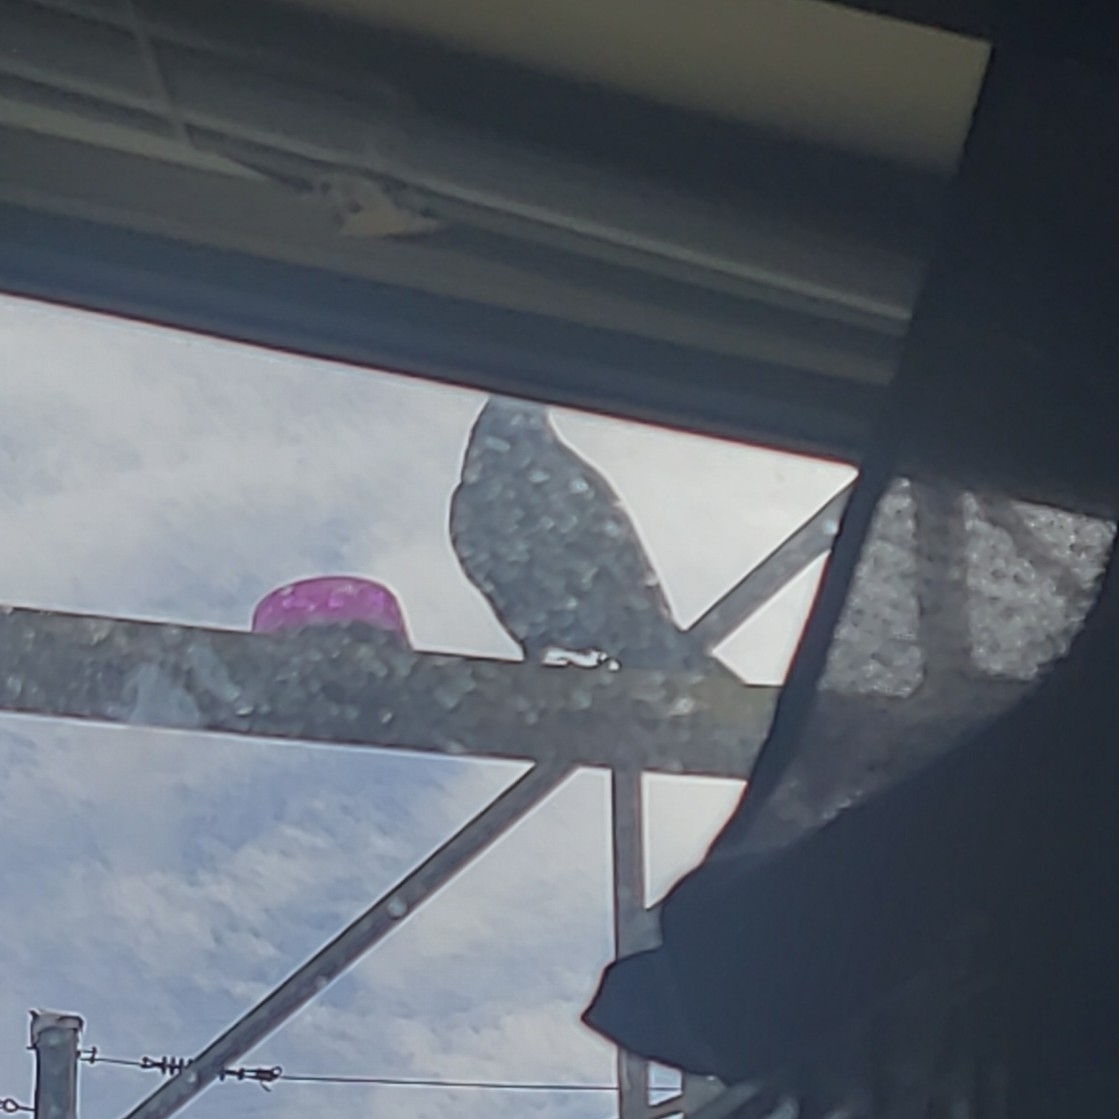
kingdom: Animalia
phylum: Chordata
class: Aves
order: Passeriformes
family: Corvidae
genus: Corvus
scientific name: Corvus brachyrhynchos
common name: American crow
